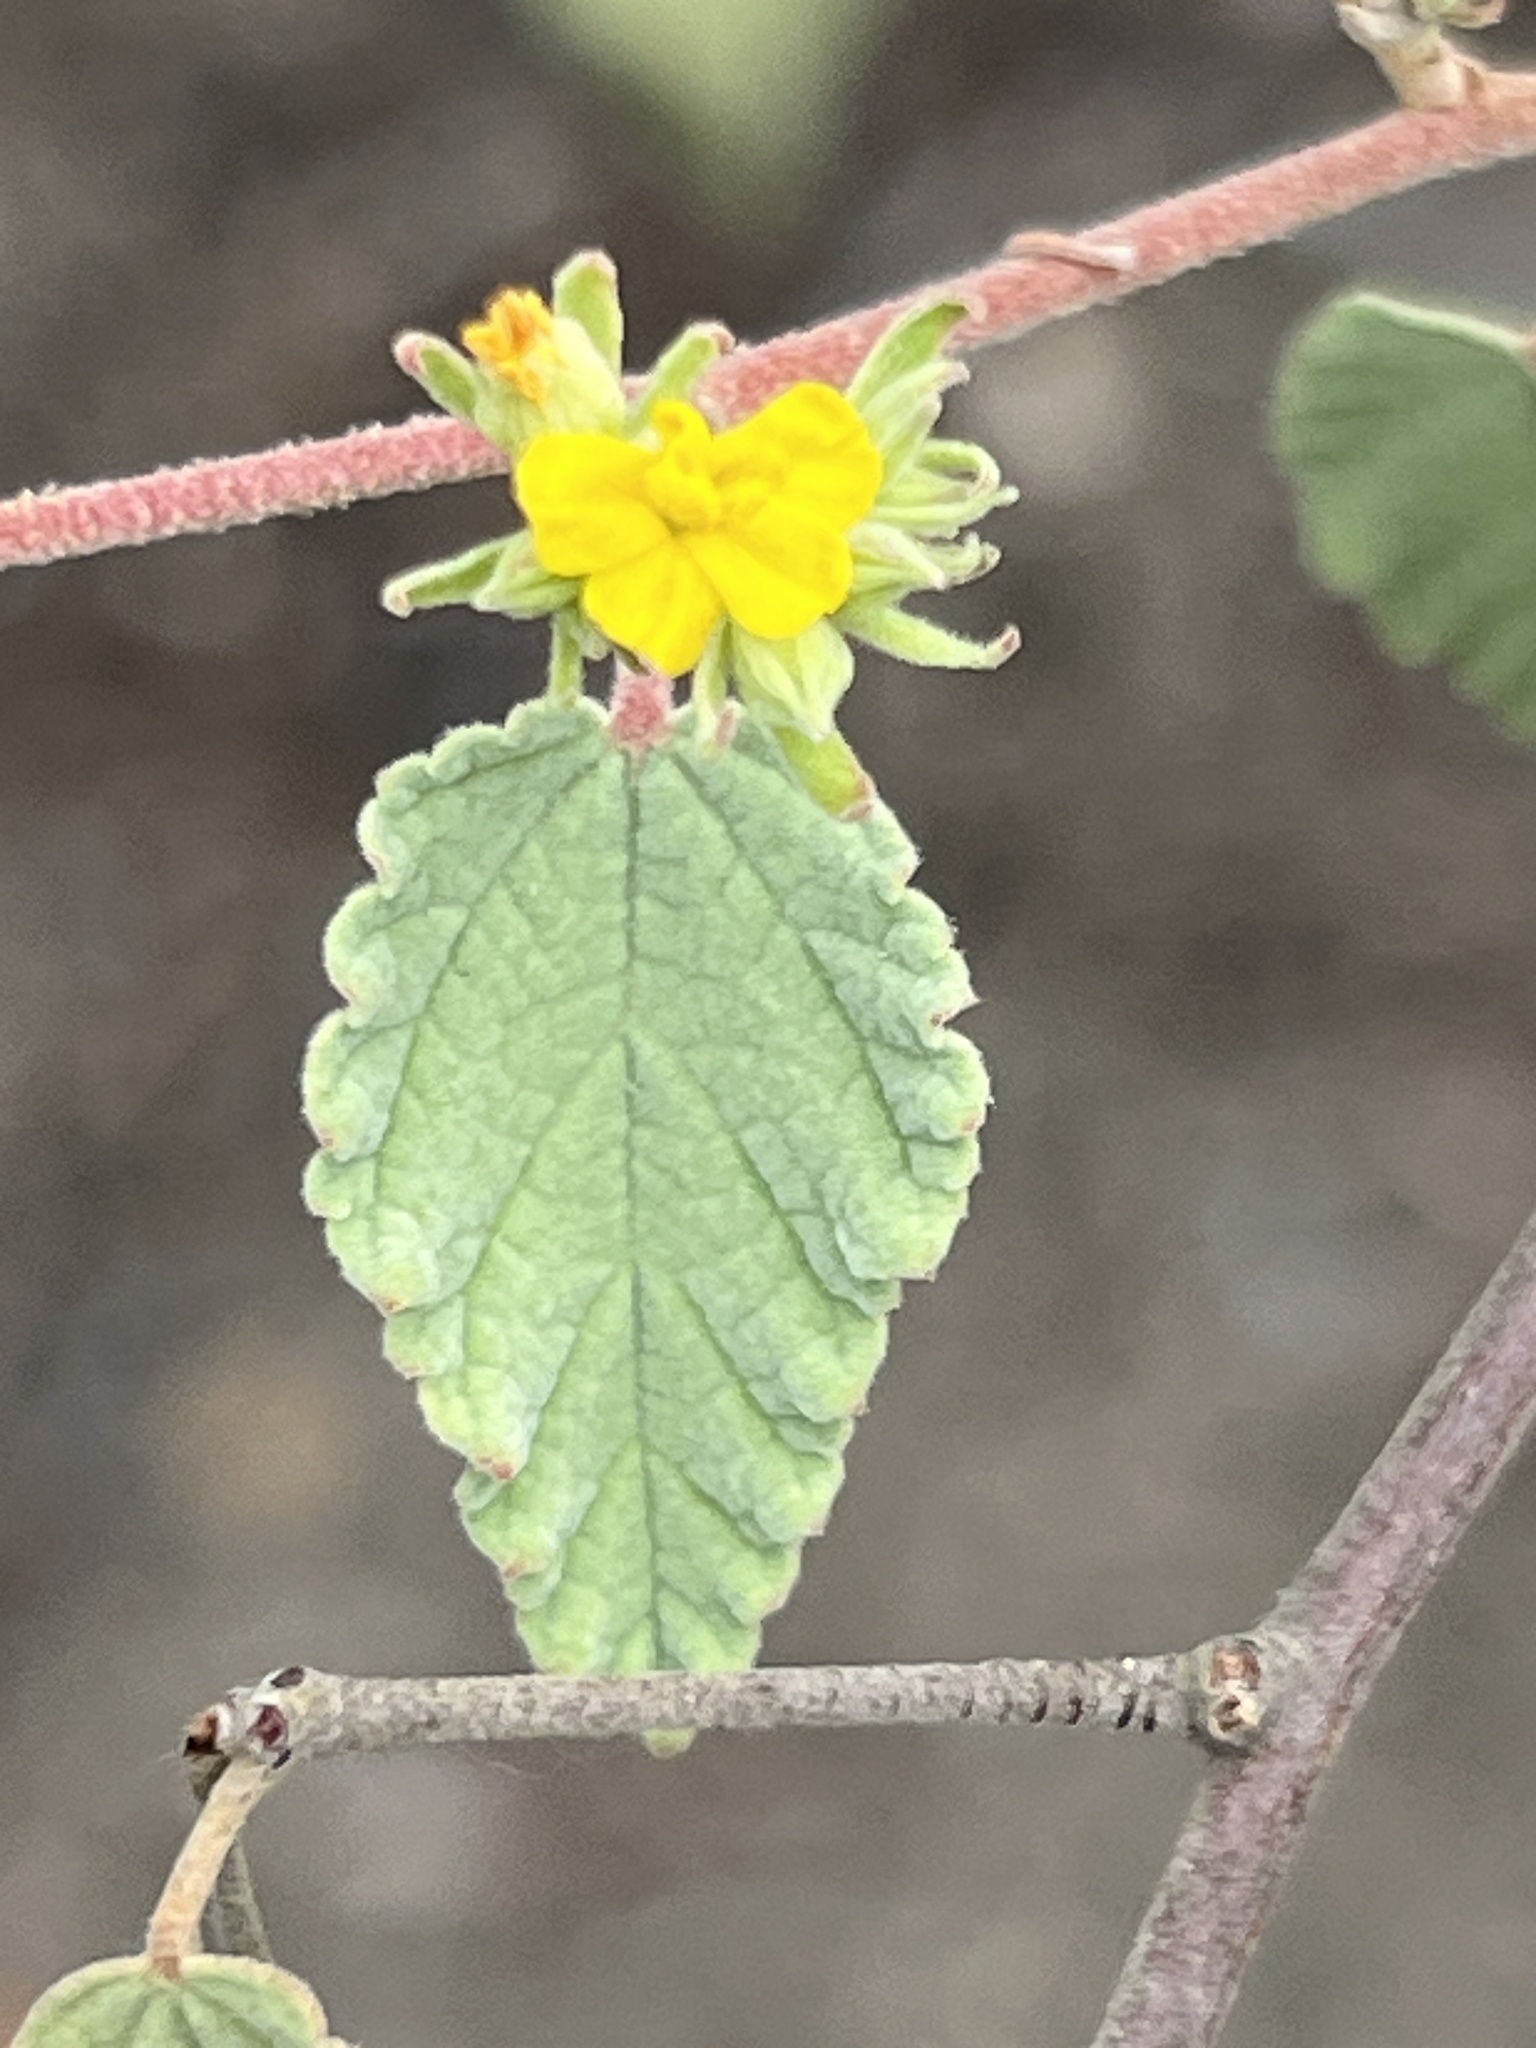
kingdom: Plantae
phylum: Tracheophyta
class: Magnoliopsida
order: Malvales
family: Malvaceae
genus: Waltheria
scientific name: Waltheria ovata
